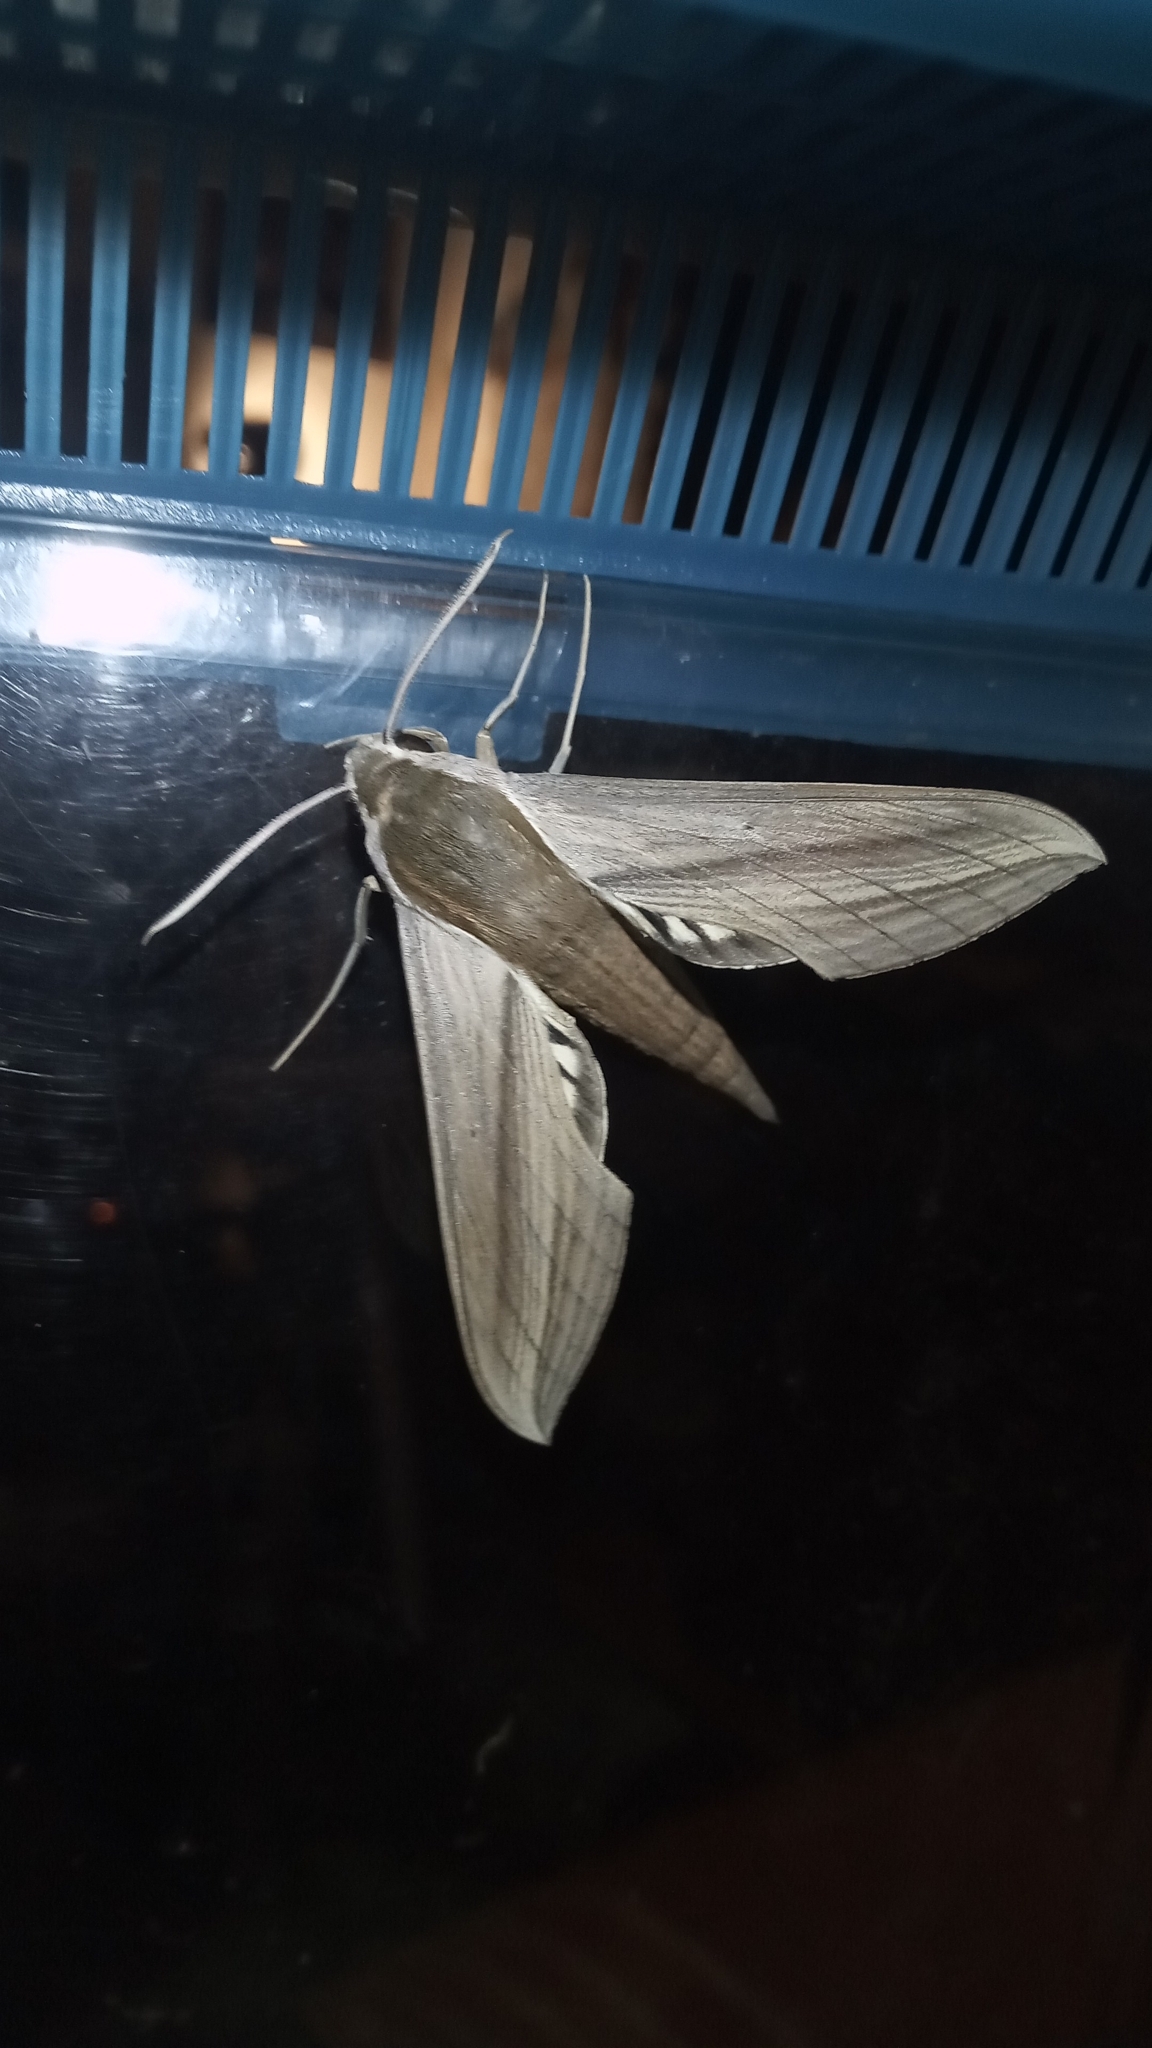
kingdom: Animalia
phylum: Arthropoda
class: Insecta
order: Lepidoptera
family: Sphingidae
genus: Xylophanes
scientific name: Xylophanes tersa
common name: Tersa sphinx
